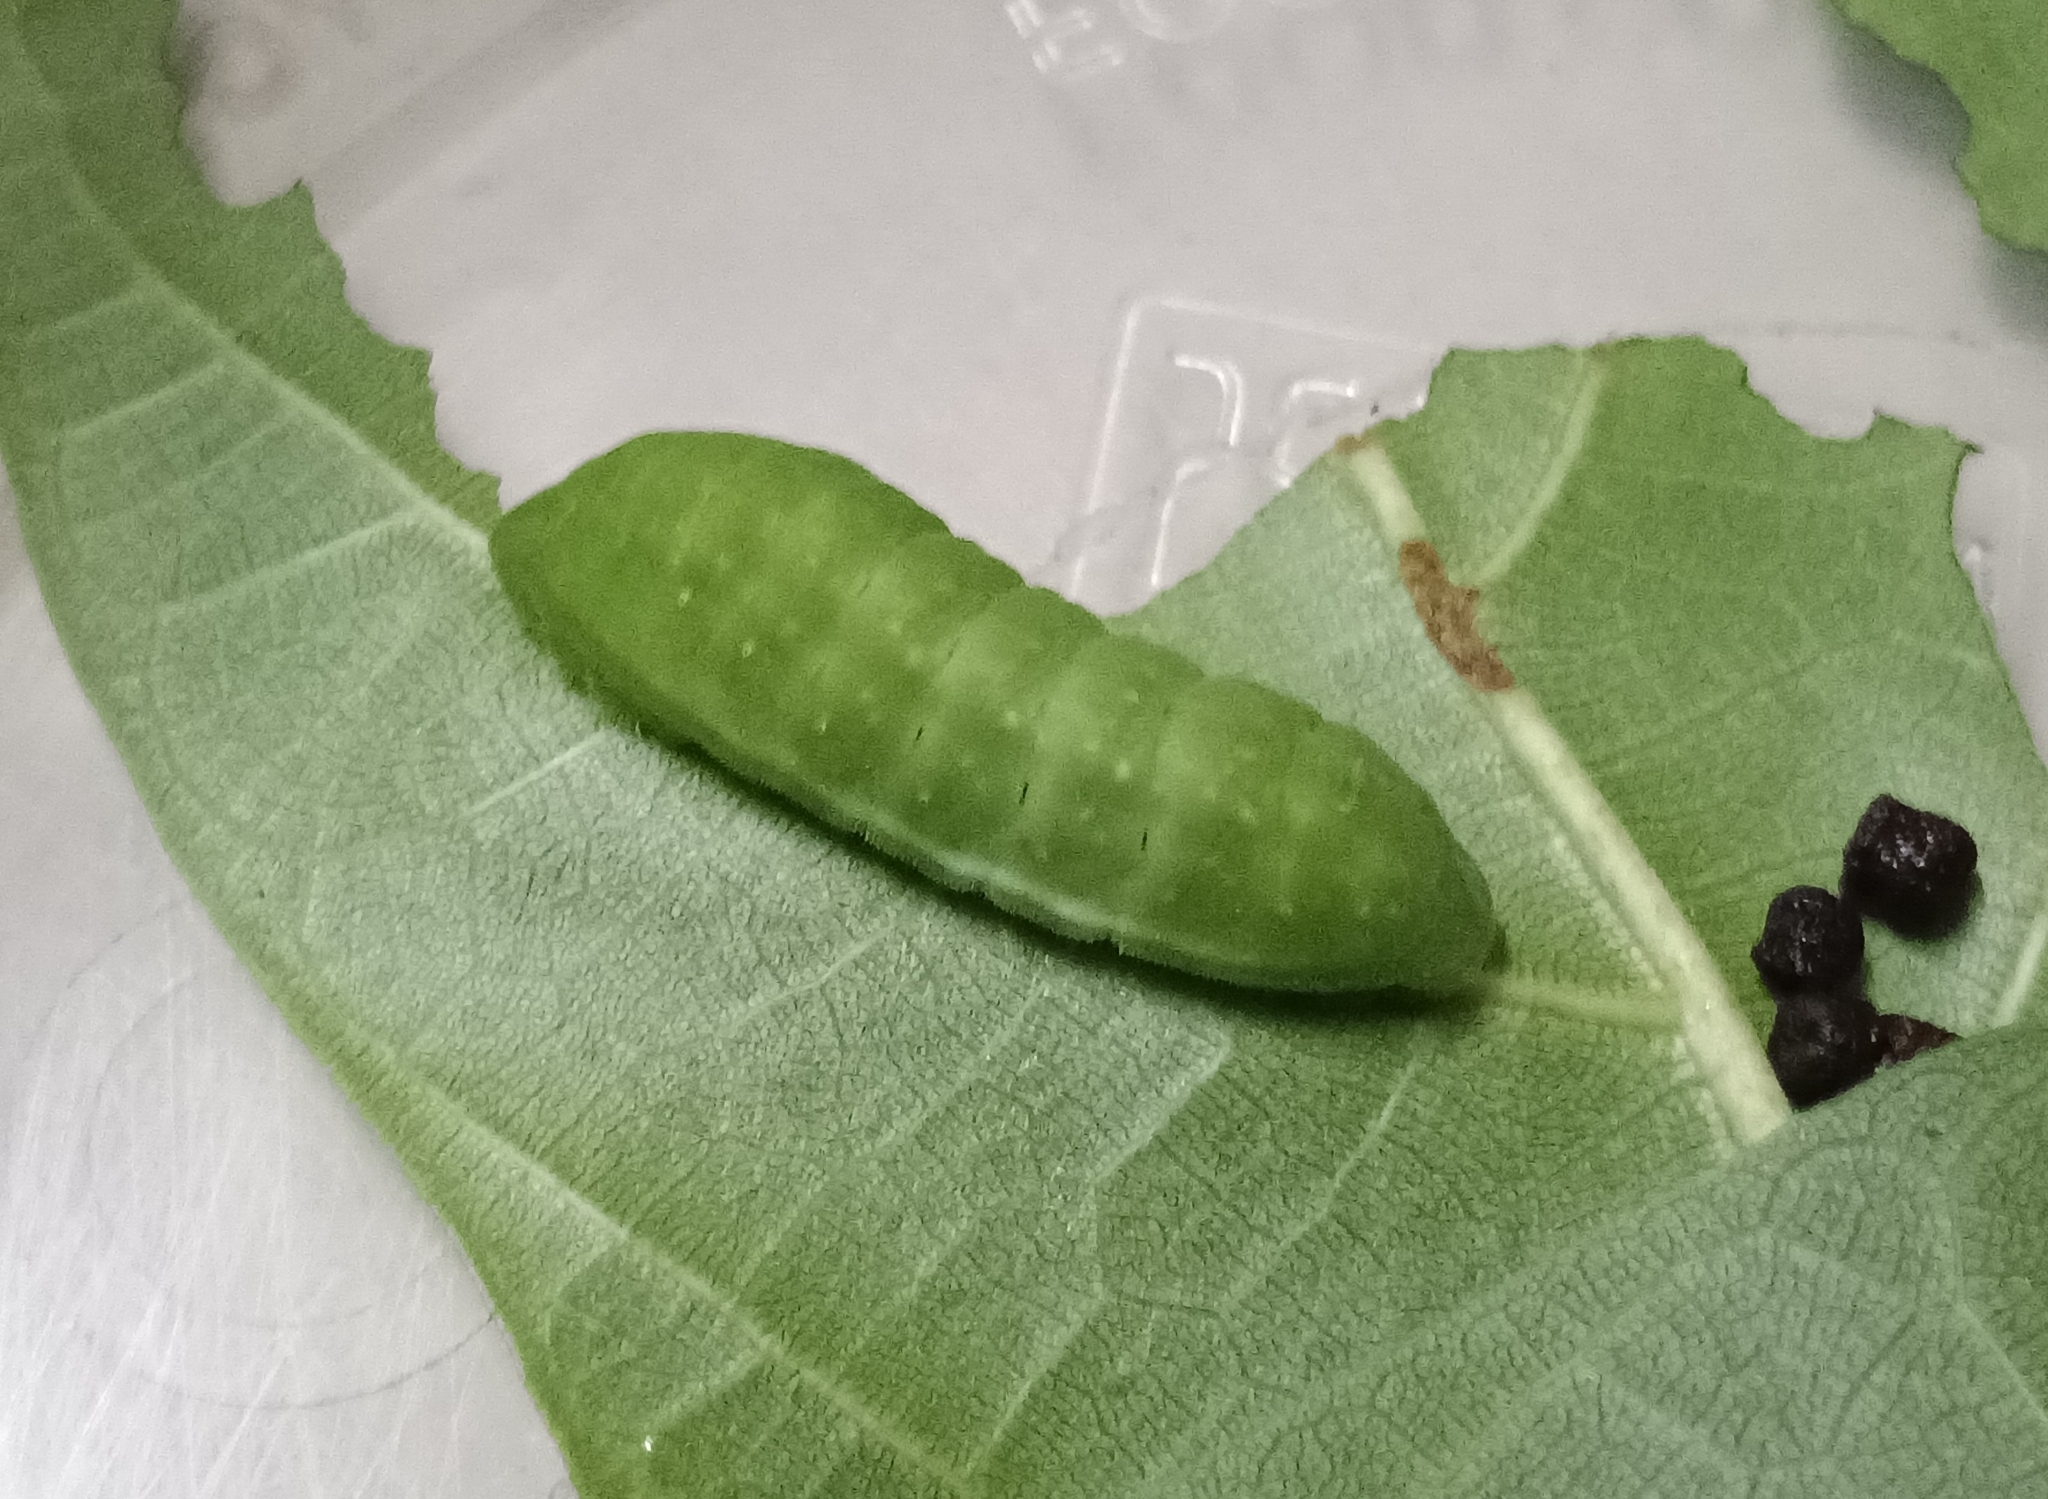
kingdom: Animalia
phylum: Arthropoda
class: Insecta
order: Lepidoptera
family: Lycaenidae
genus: Iraota
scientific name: Iraota timoleon
